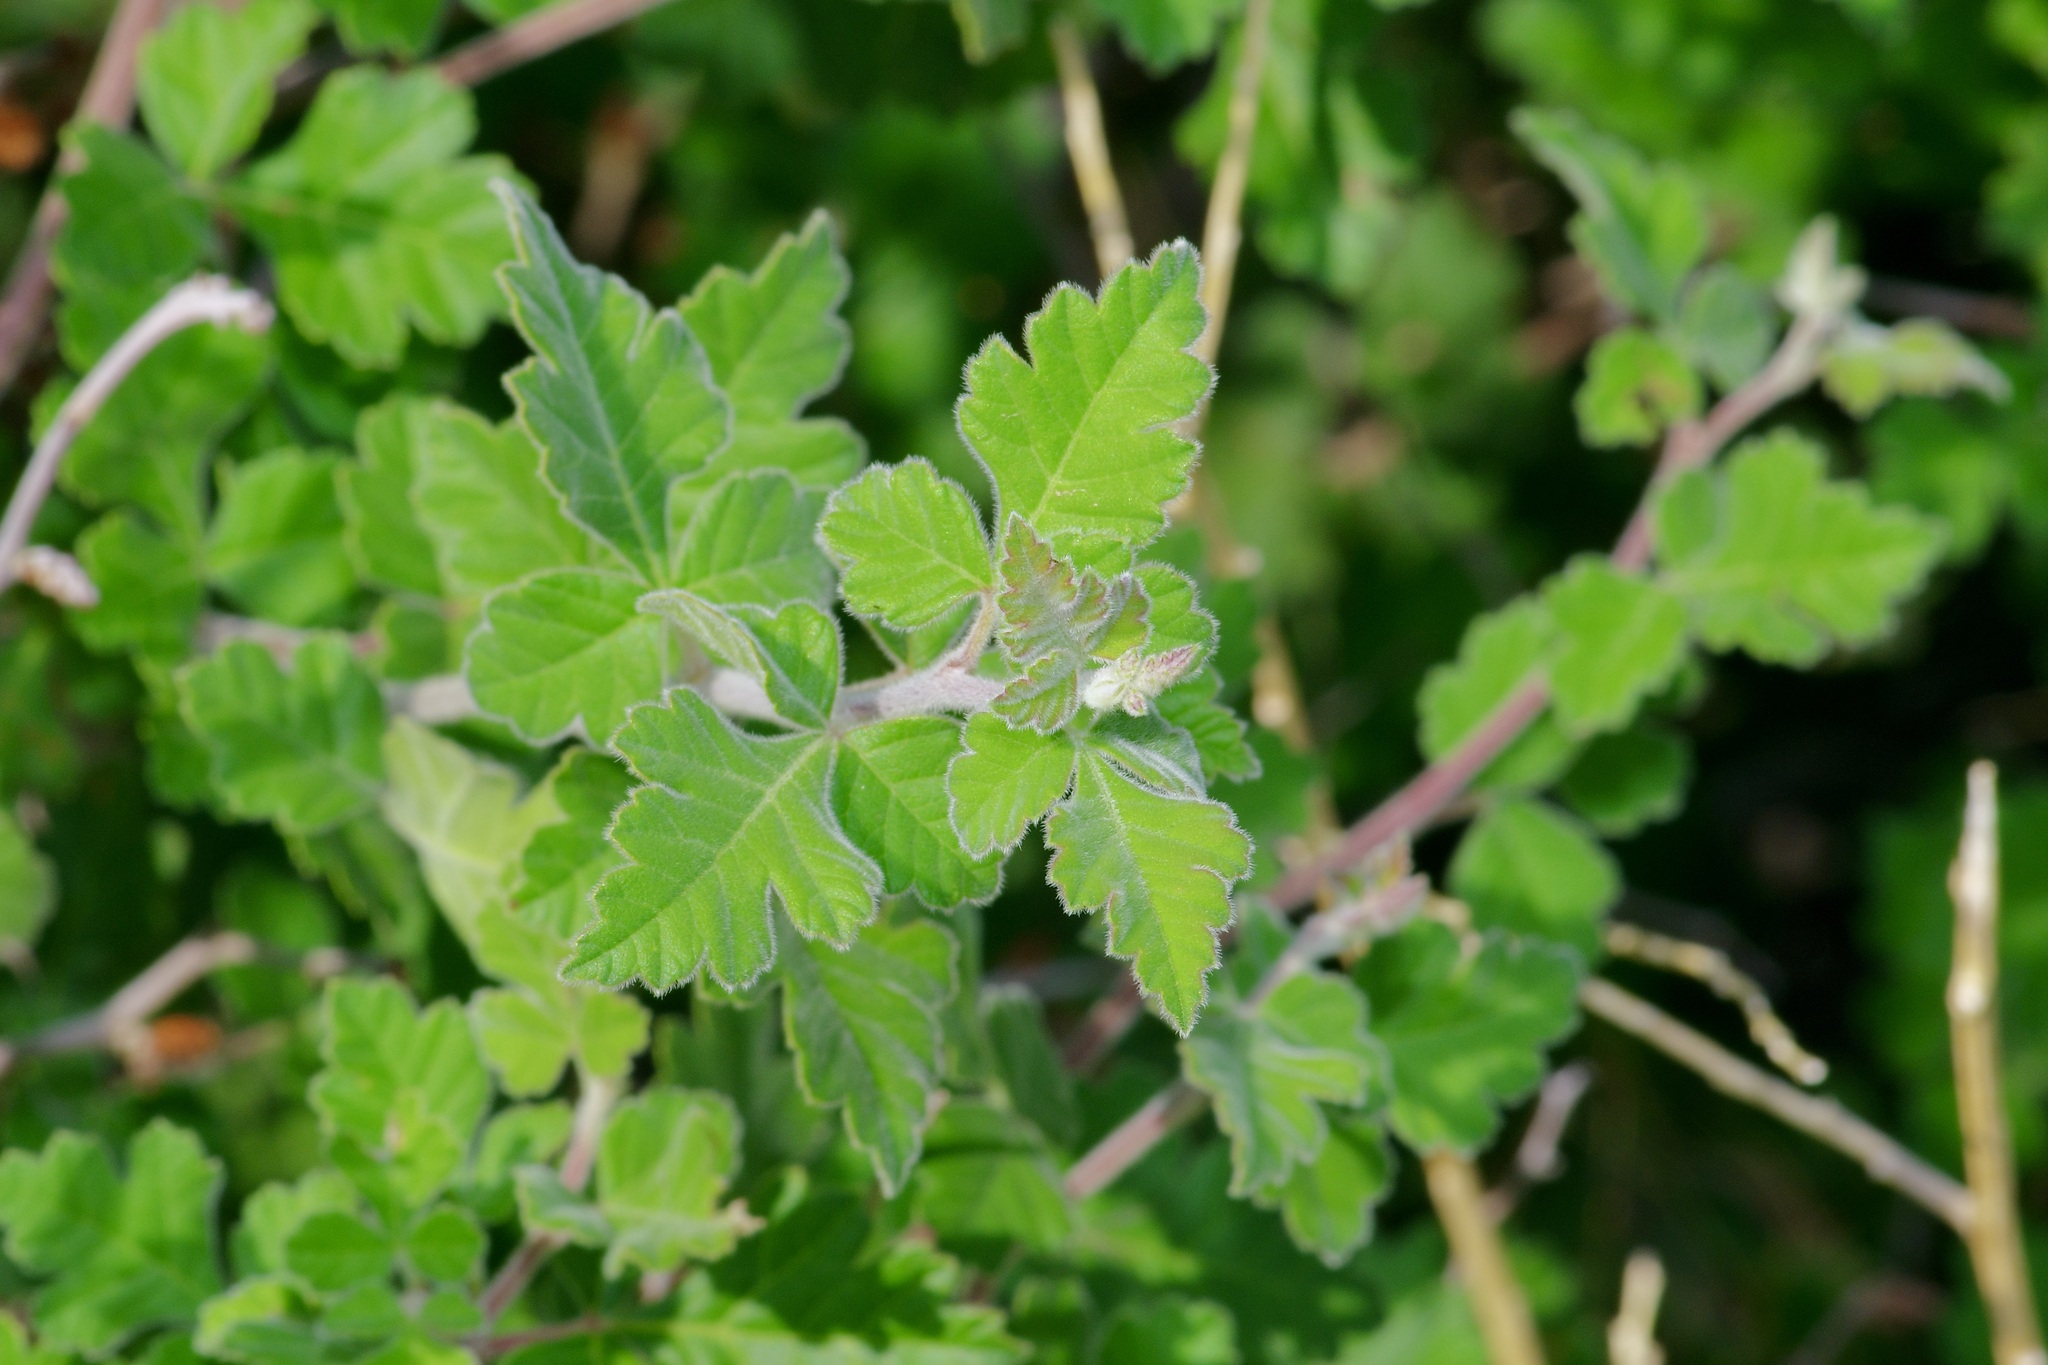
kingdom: Plantae
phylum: Tracheophyta
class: Magnoliopsida
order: Sapindales
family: Anacardiaceae
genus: Rhus
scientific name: Rhus aromatica
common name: Aromatic sumac
